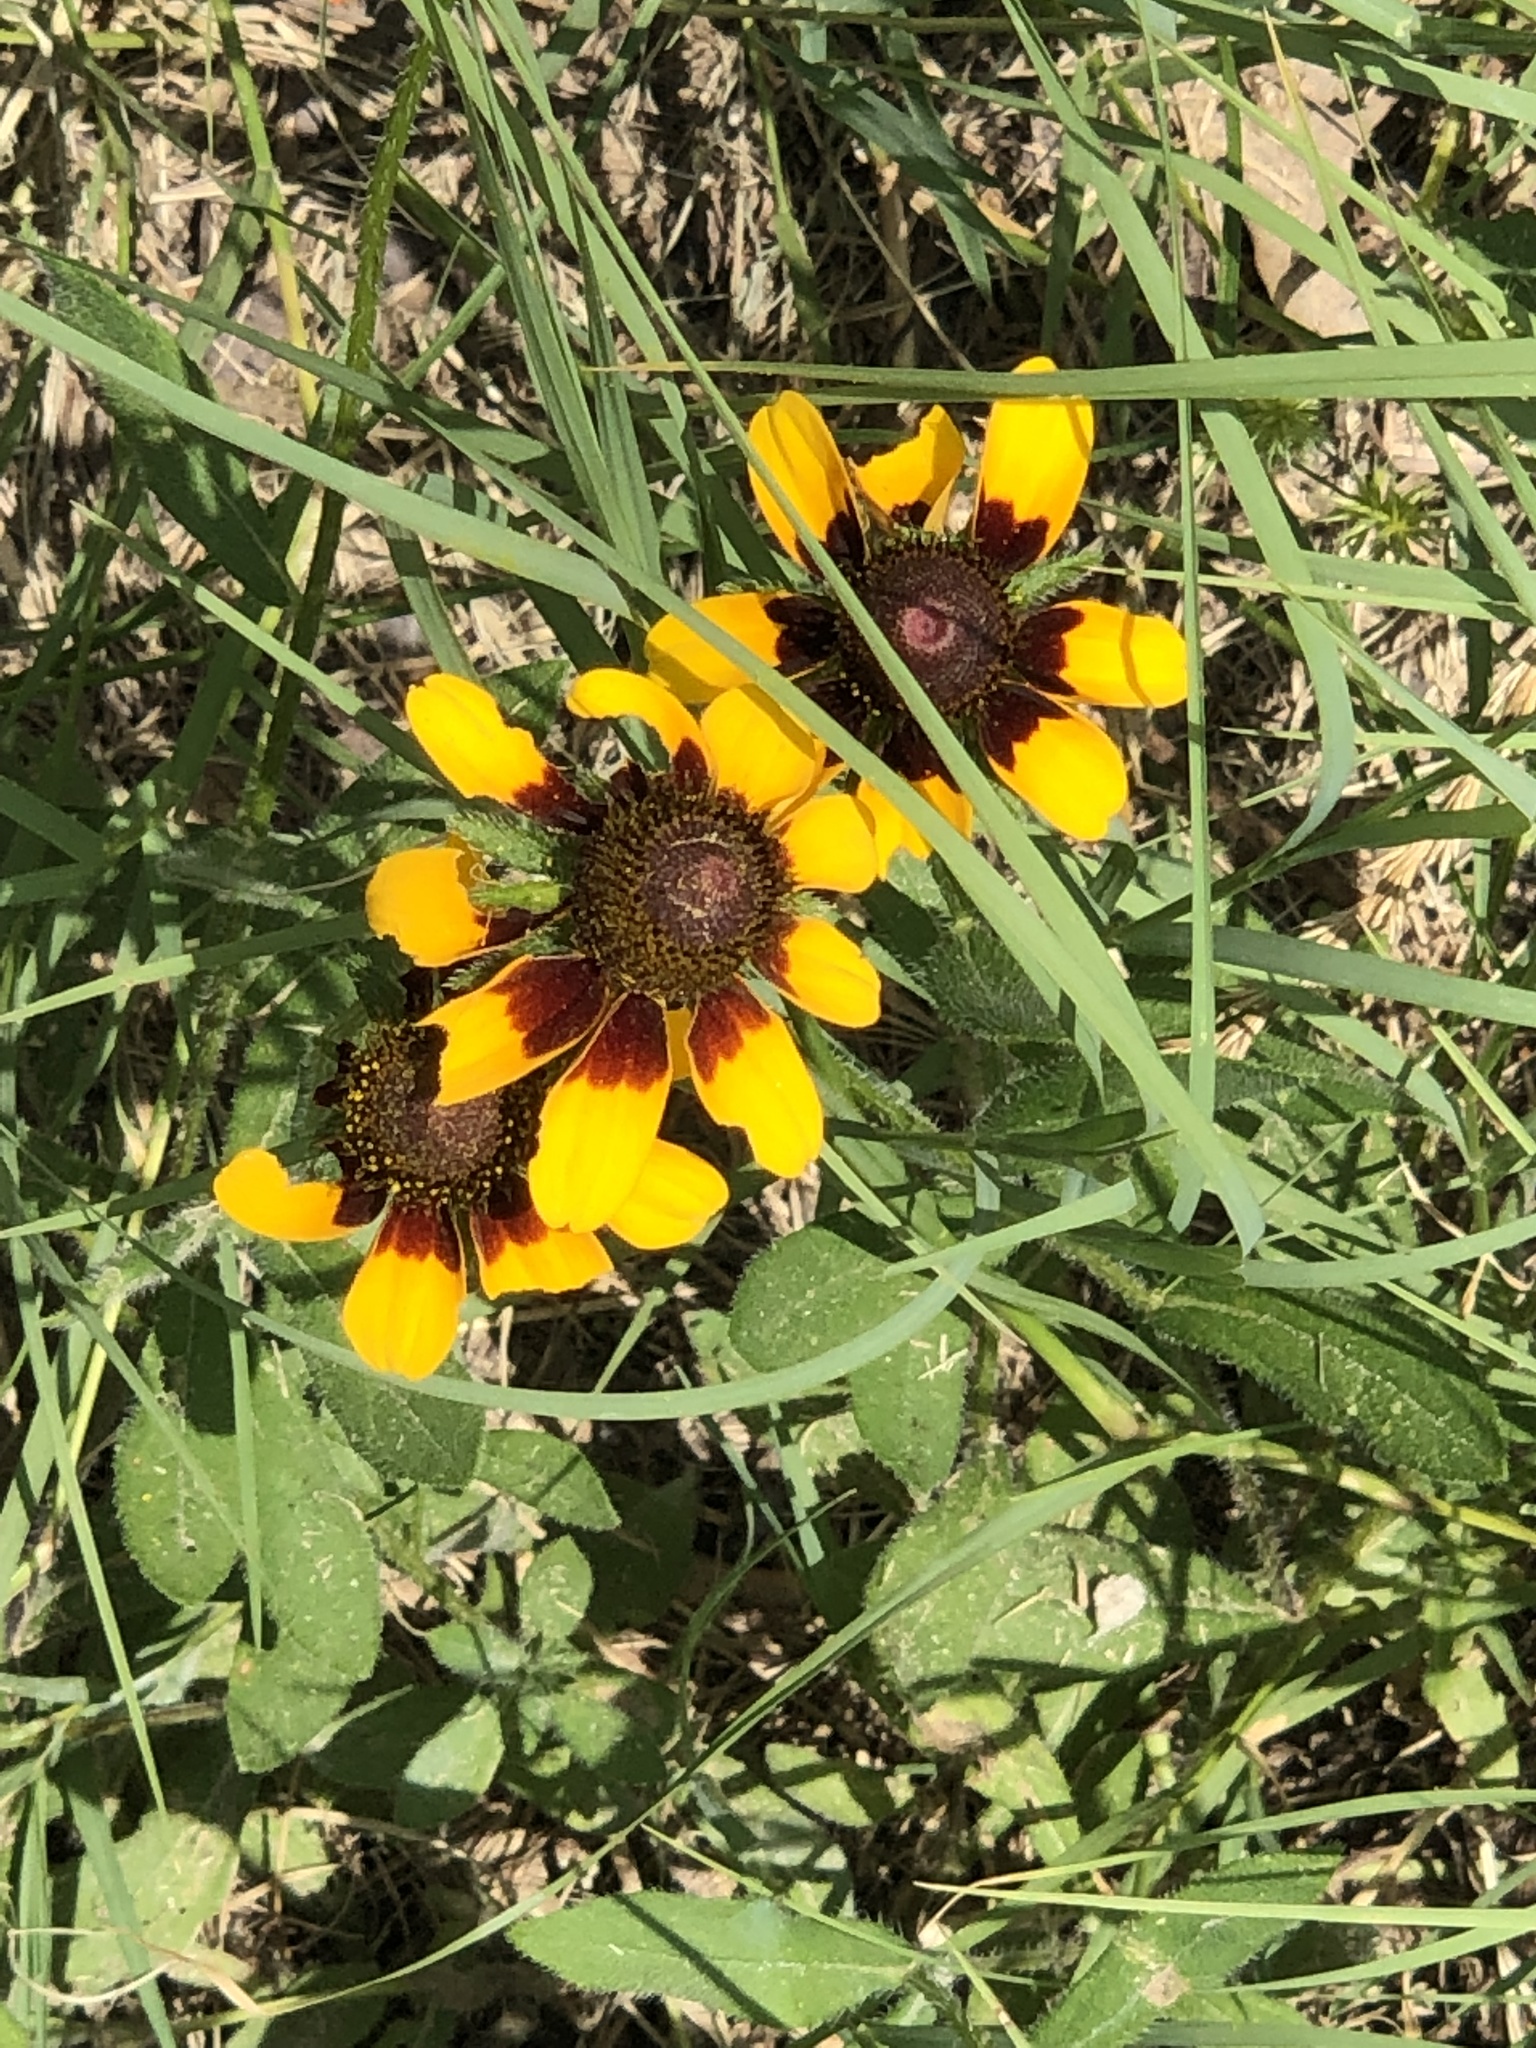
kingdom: Plantae
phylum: Tracheophyta
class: Magnoliopsida
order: Asterales
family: Asteraceae
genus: Rudbeckia
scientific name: Rudbeckia hirta
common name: Black-eyed-susan
